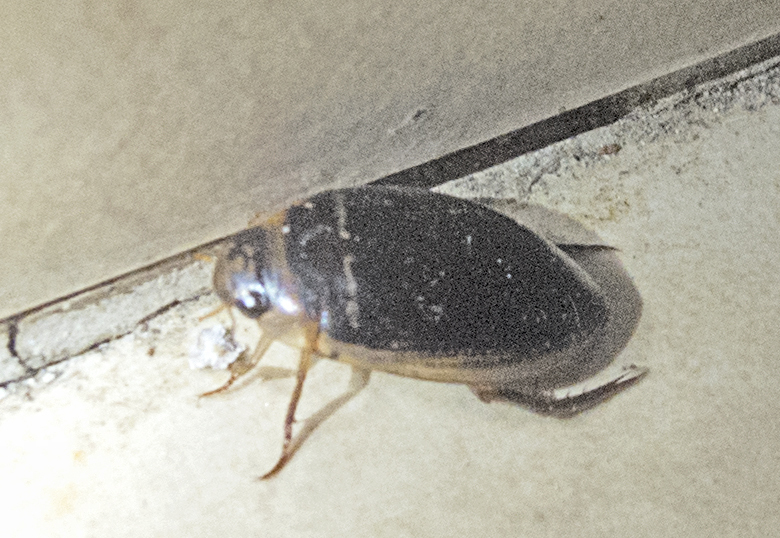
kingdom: Animalia
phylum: Arthropoda
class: Insecta
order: Coleoptera
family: Dytiscidae
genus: Hydaticus
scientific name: Hydaticus transversalis
